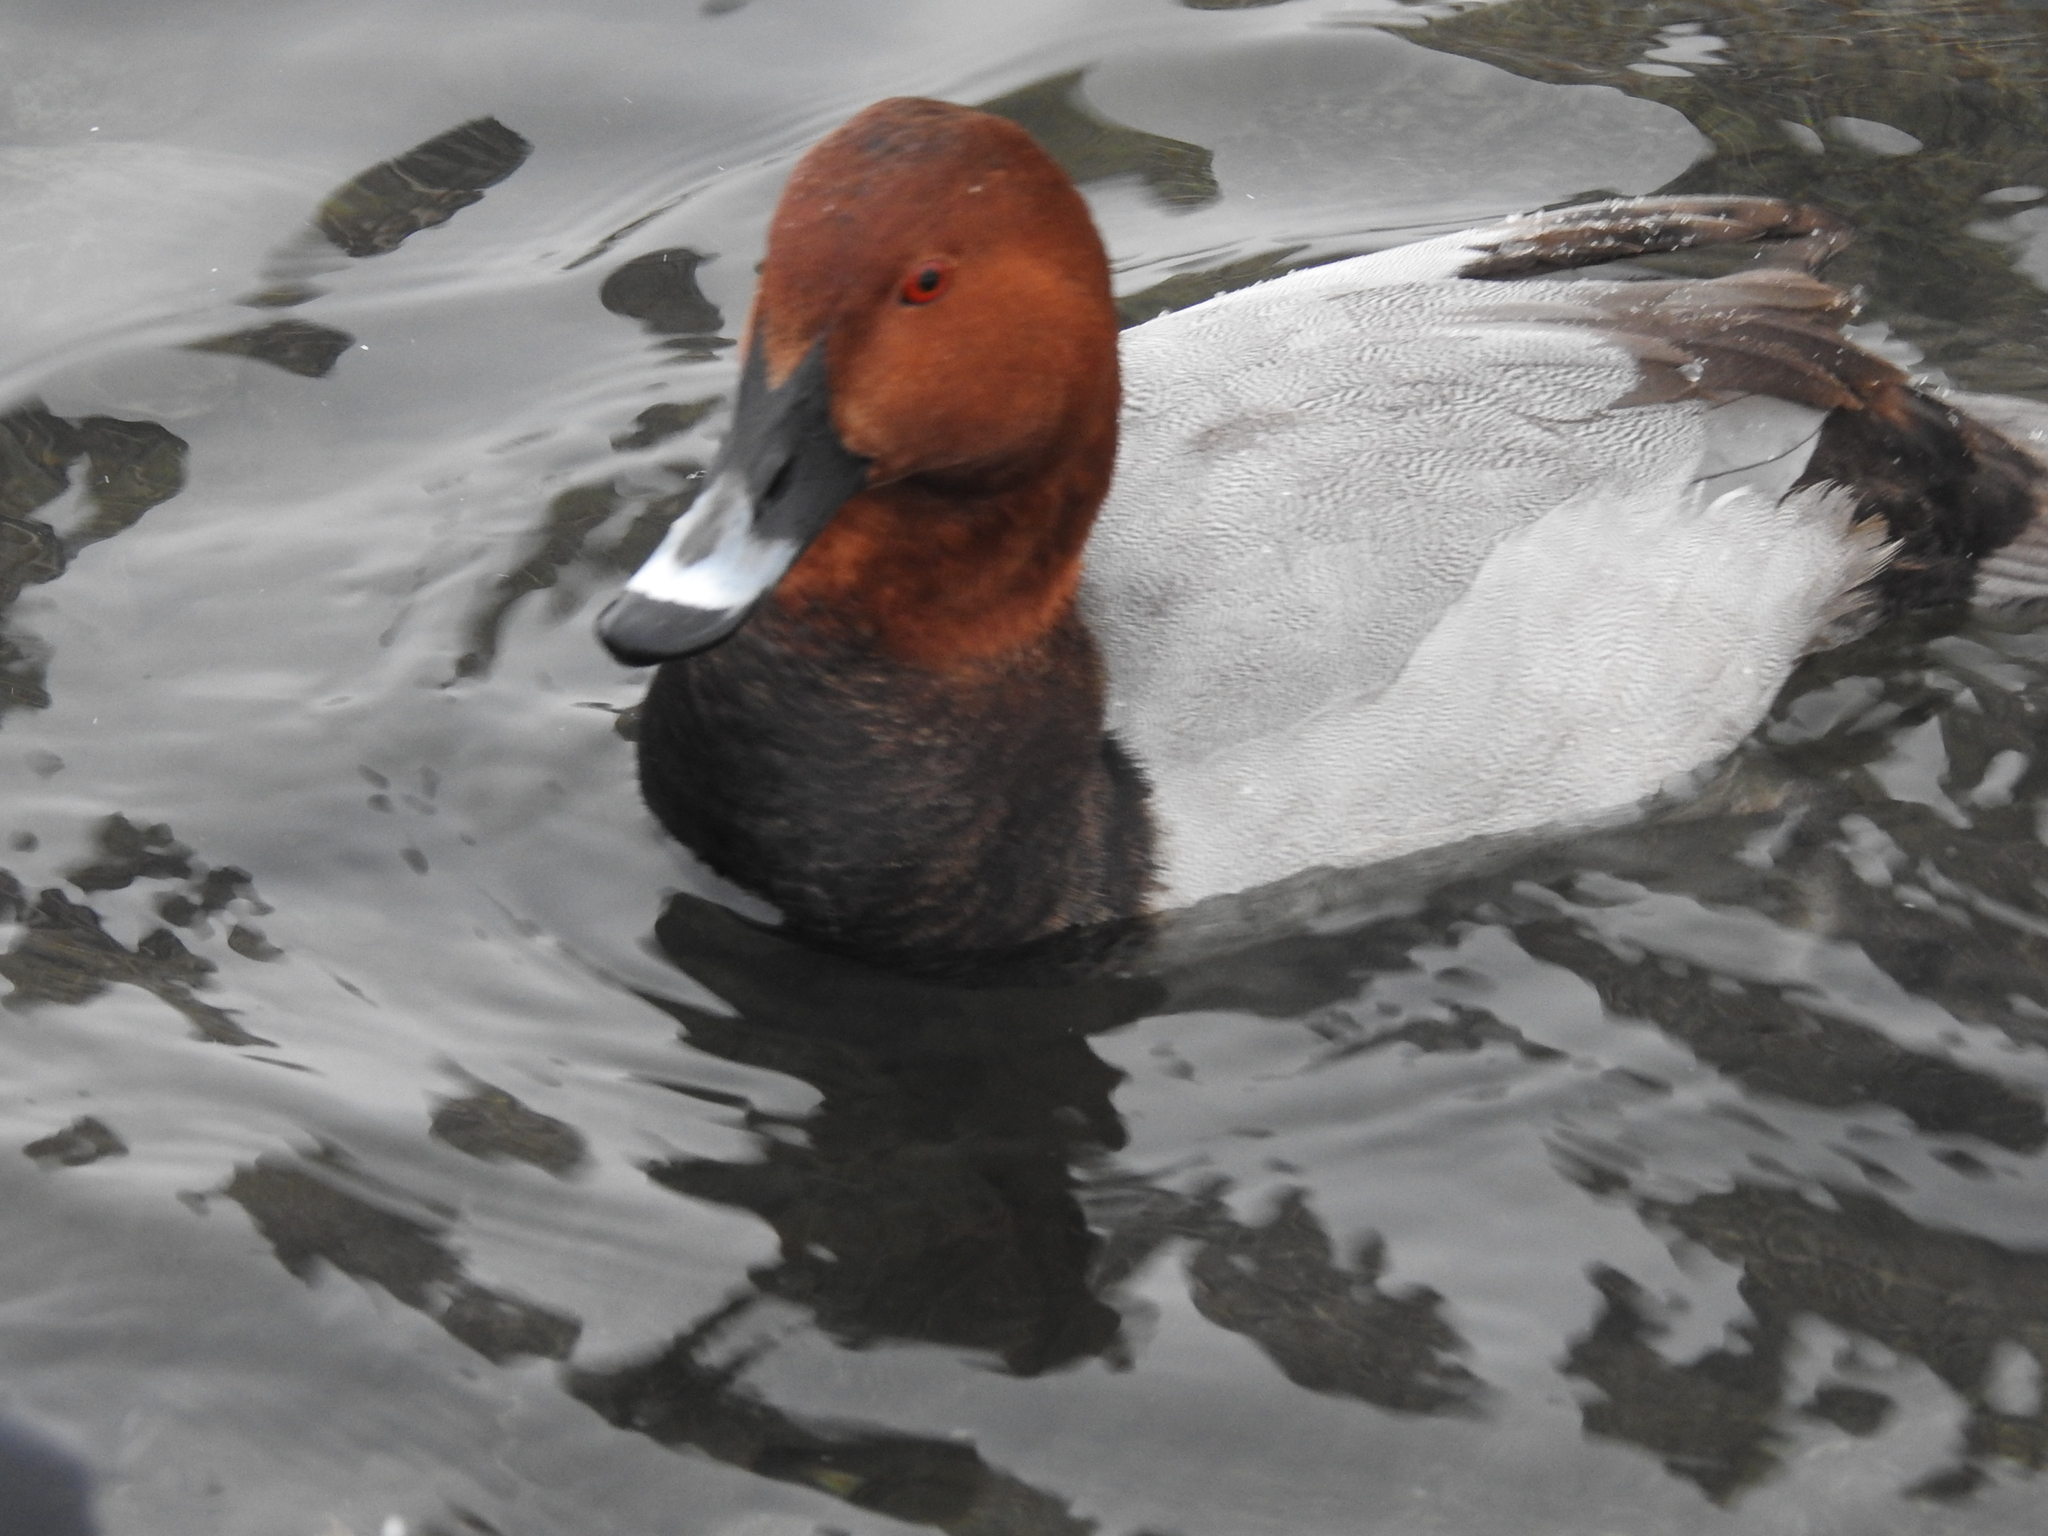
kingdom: Animalia
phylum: Chordata
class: Aves
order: Anseriformes
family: Anatidae
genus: Aythya
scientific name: Aythya ferina
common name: Common pochard
